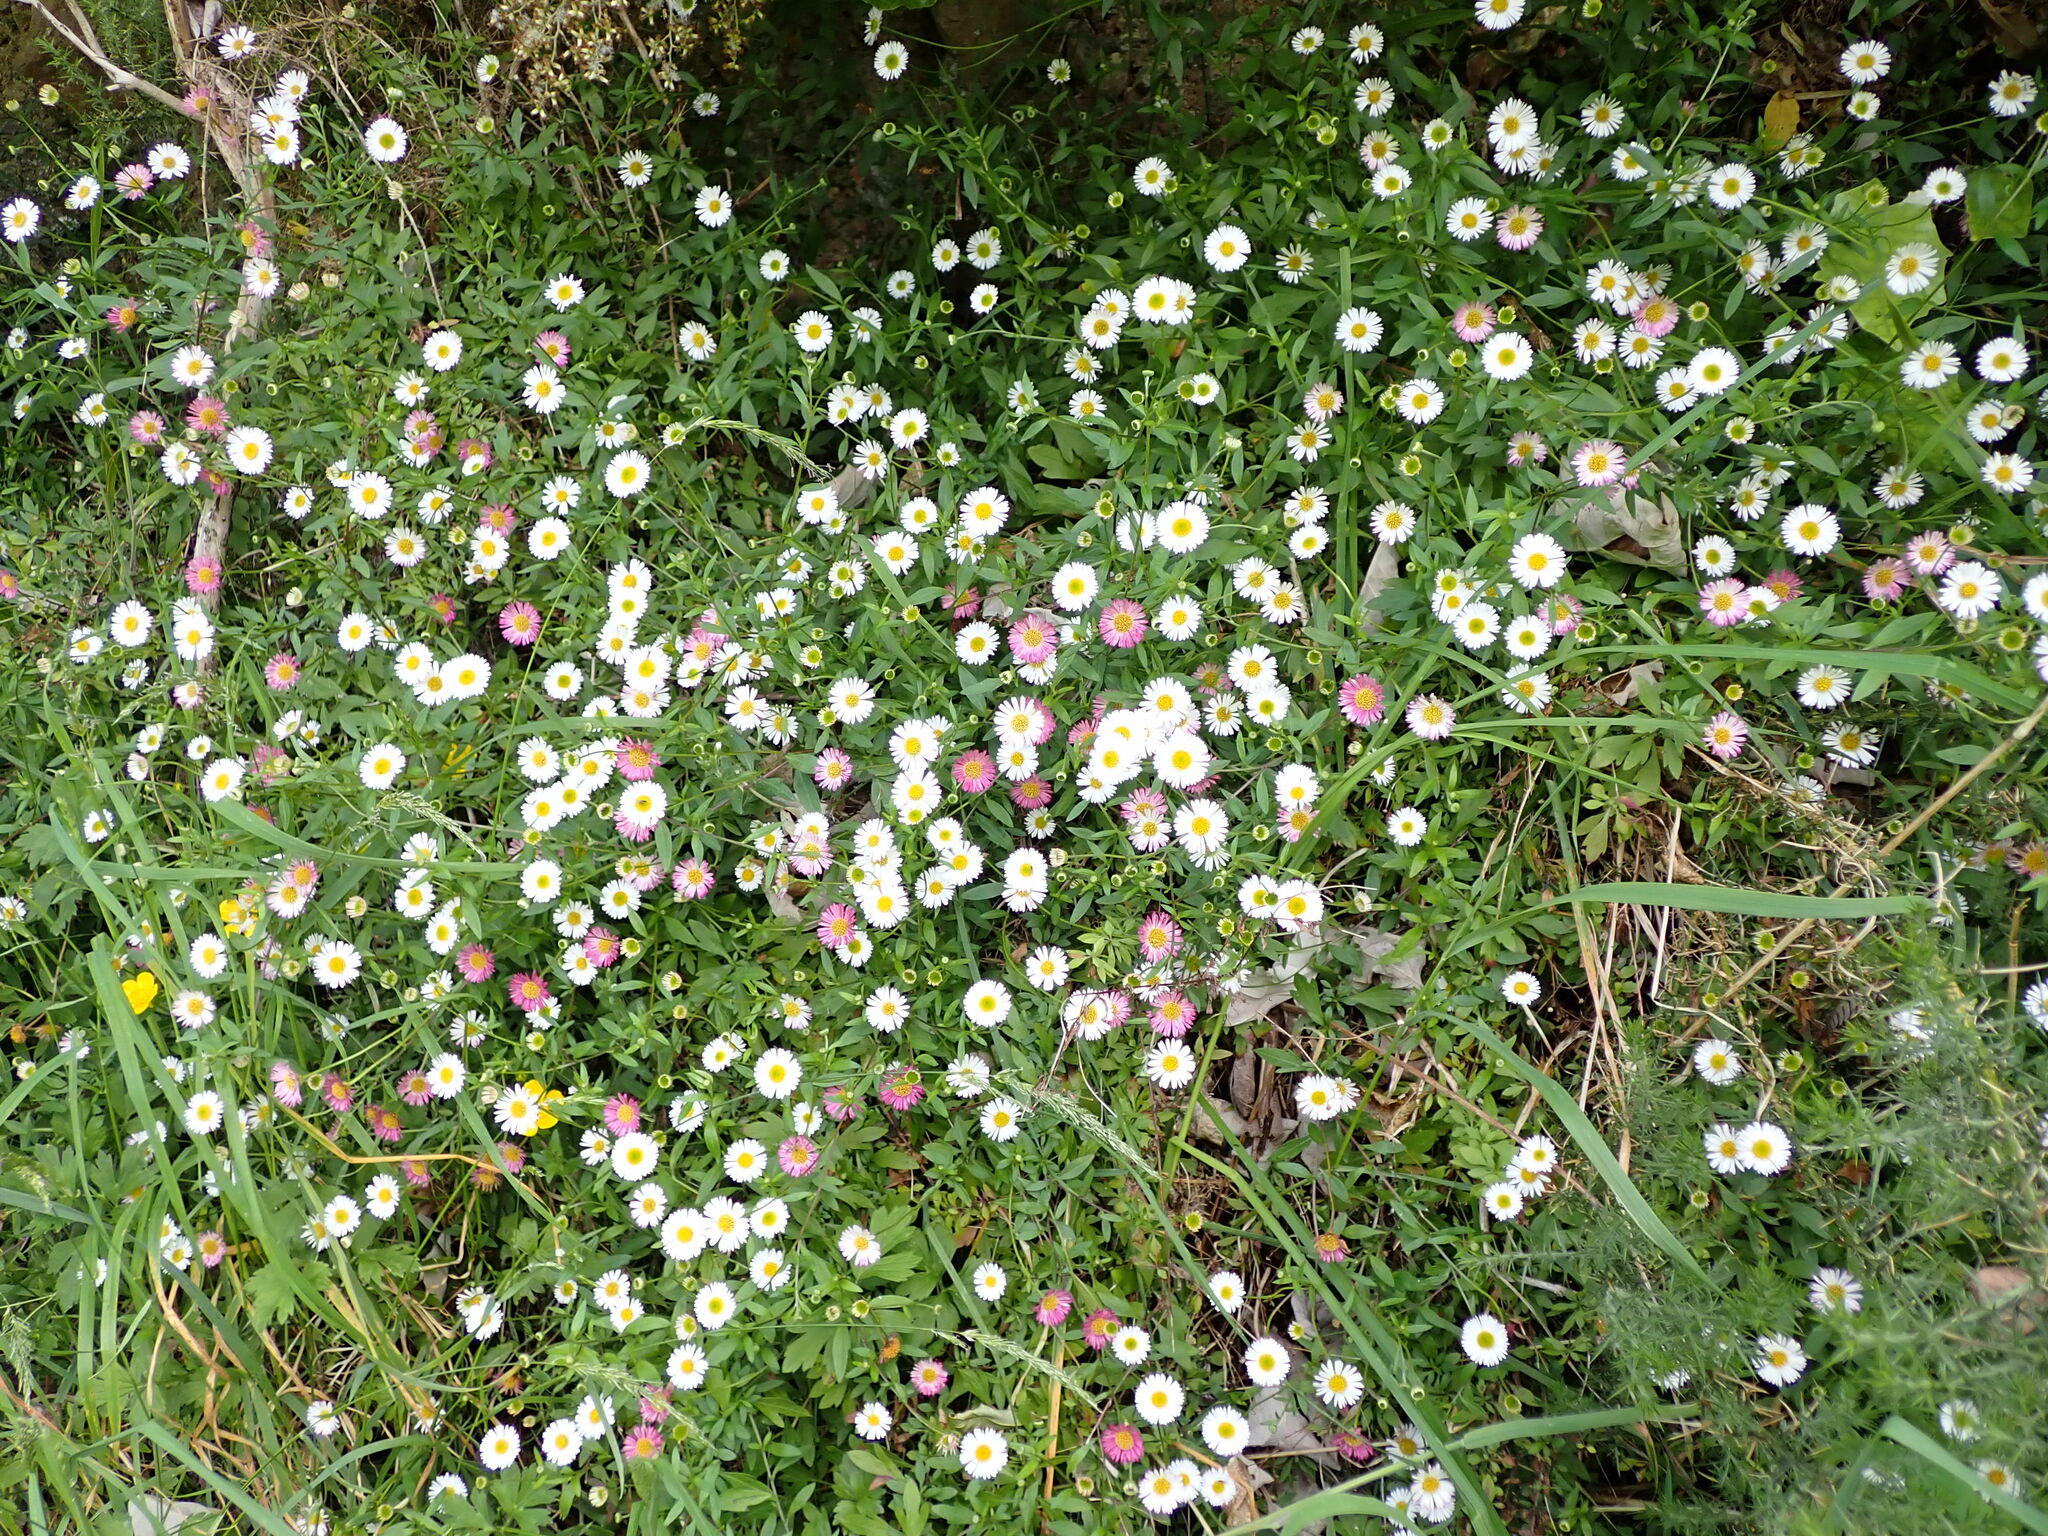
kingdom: Plantae
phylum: Tracheophyta
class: Magnoliopsida
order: Asterales
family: Asteraceae
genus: Erigeron
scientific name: Erigeron karvinskianus
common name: Mexican fleabane
